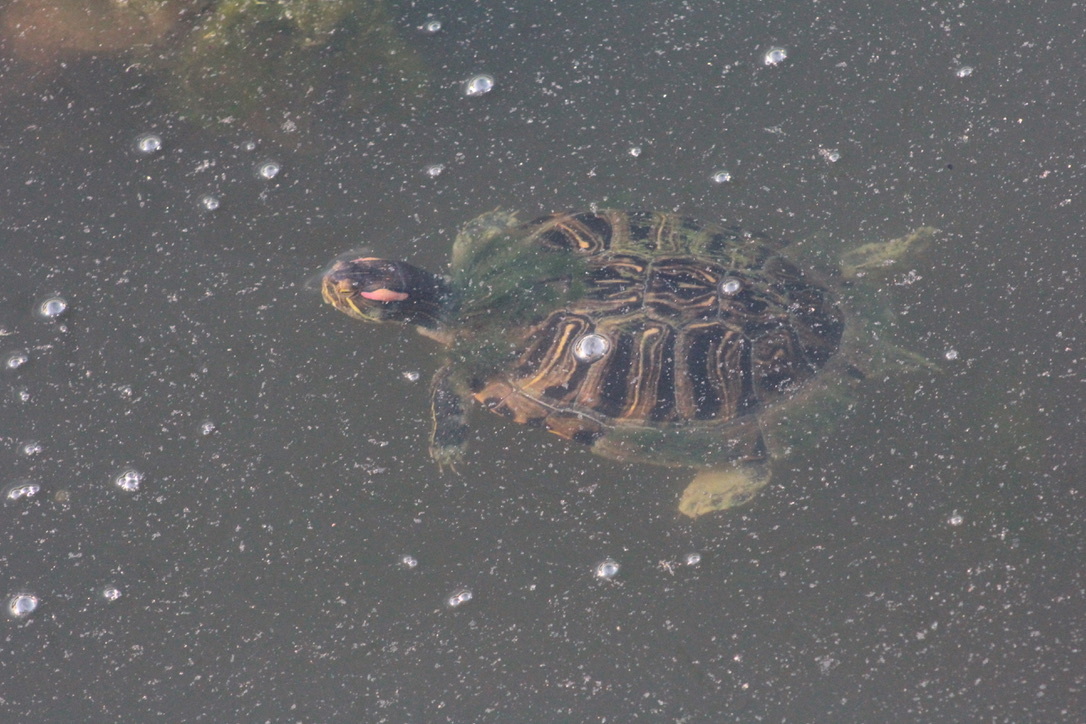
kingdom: Animalia
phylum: Chordata
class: Testudines
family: Emydidae
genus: Trachemys
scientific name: Trachemys scripta
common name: Slider
